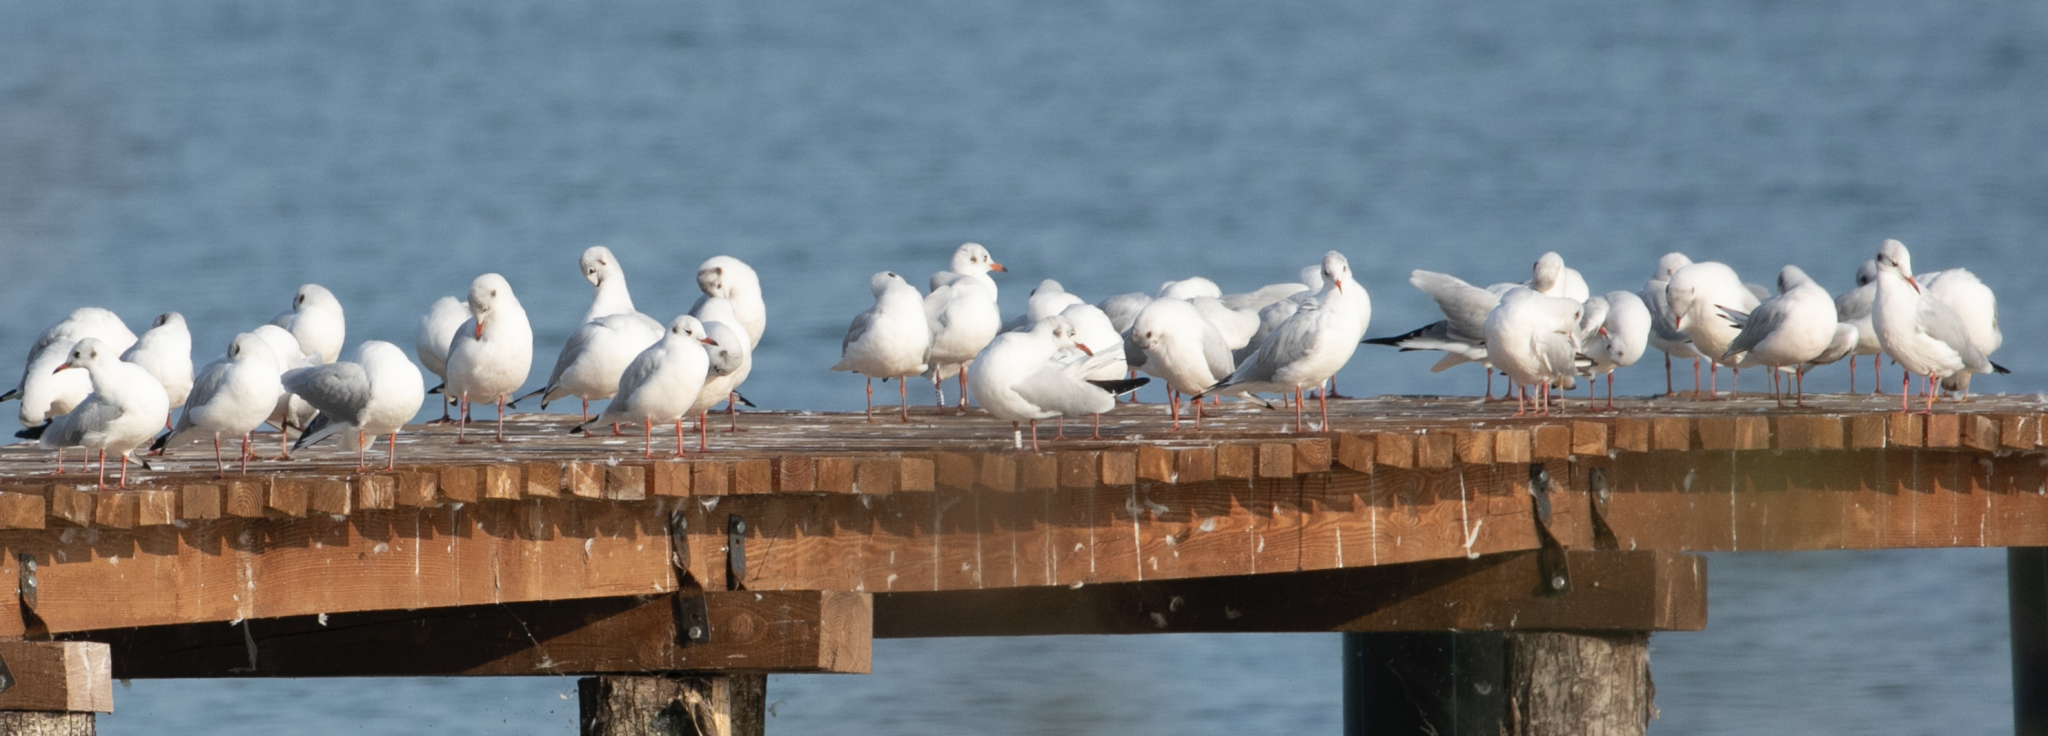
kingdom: Animalia
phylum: Chordata
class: Aves
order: Charadriiformes
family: Laridae
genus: Chroicocephalus
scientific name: Chroicocephalus ridibundus
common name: Black-headed gull
